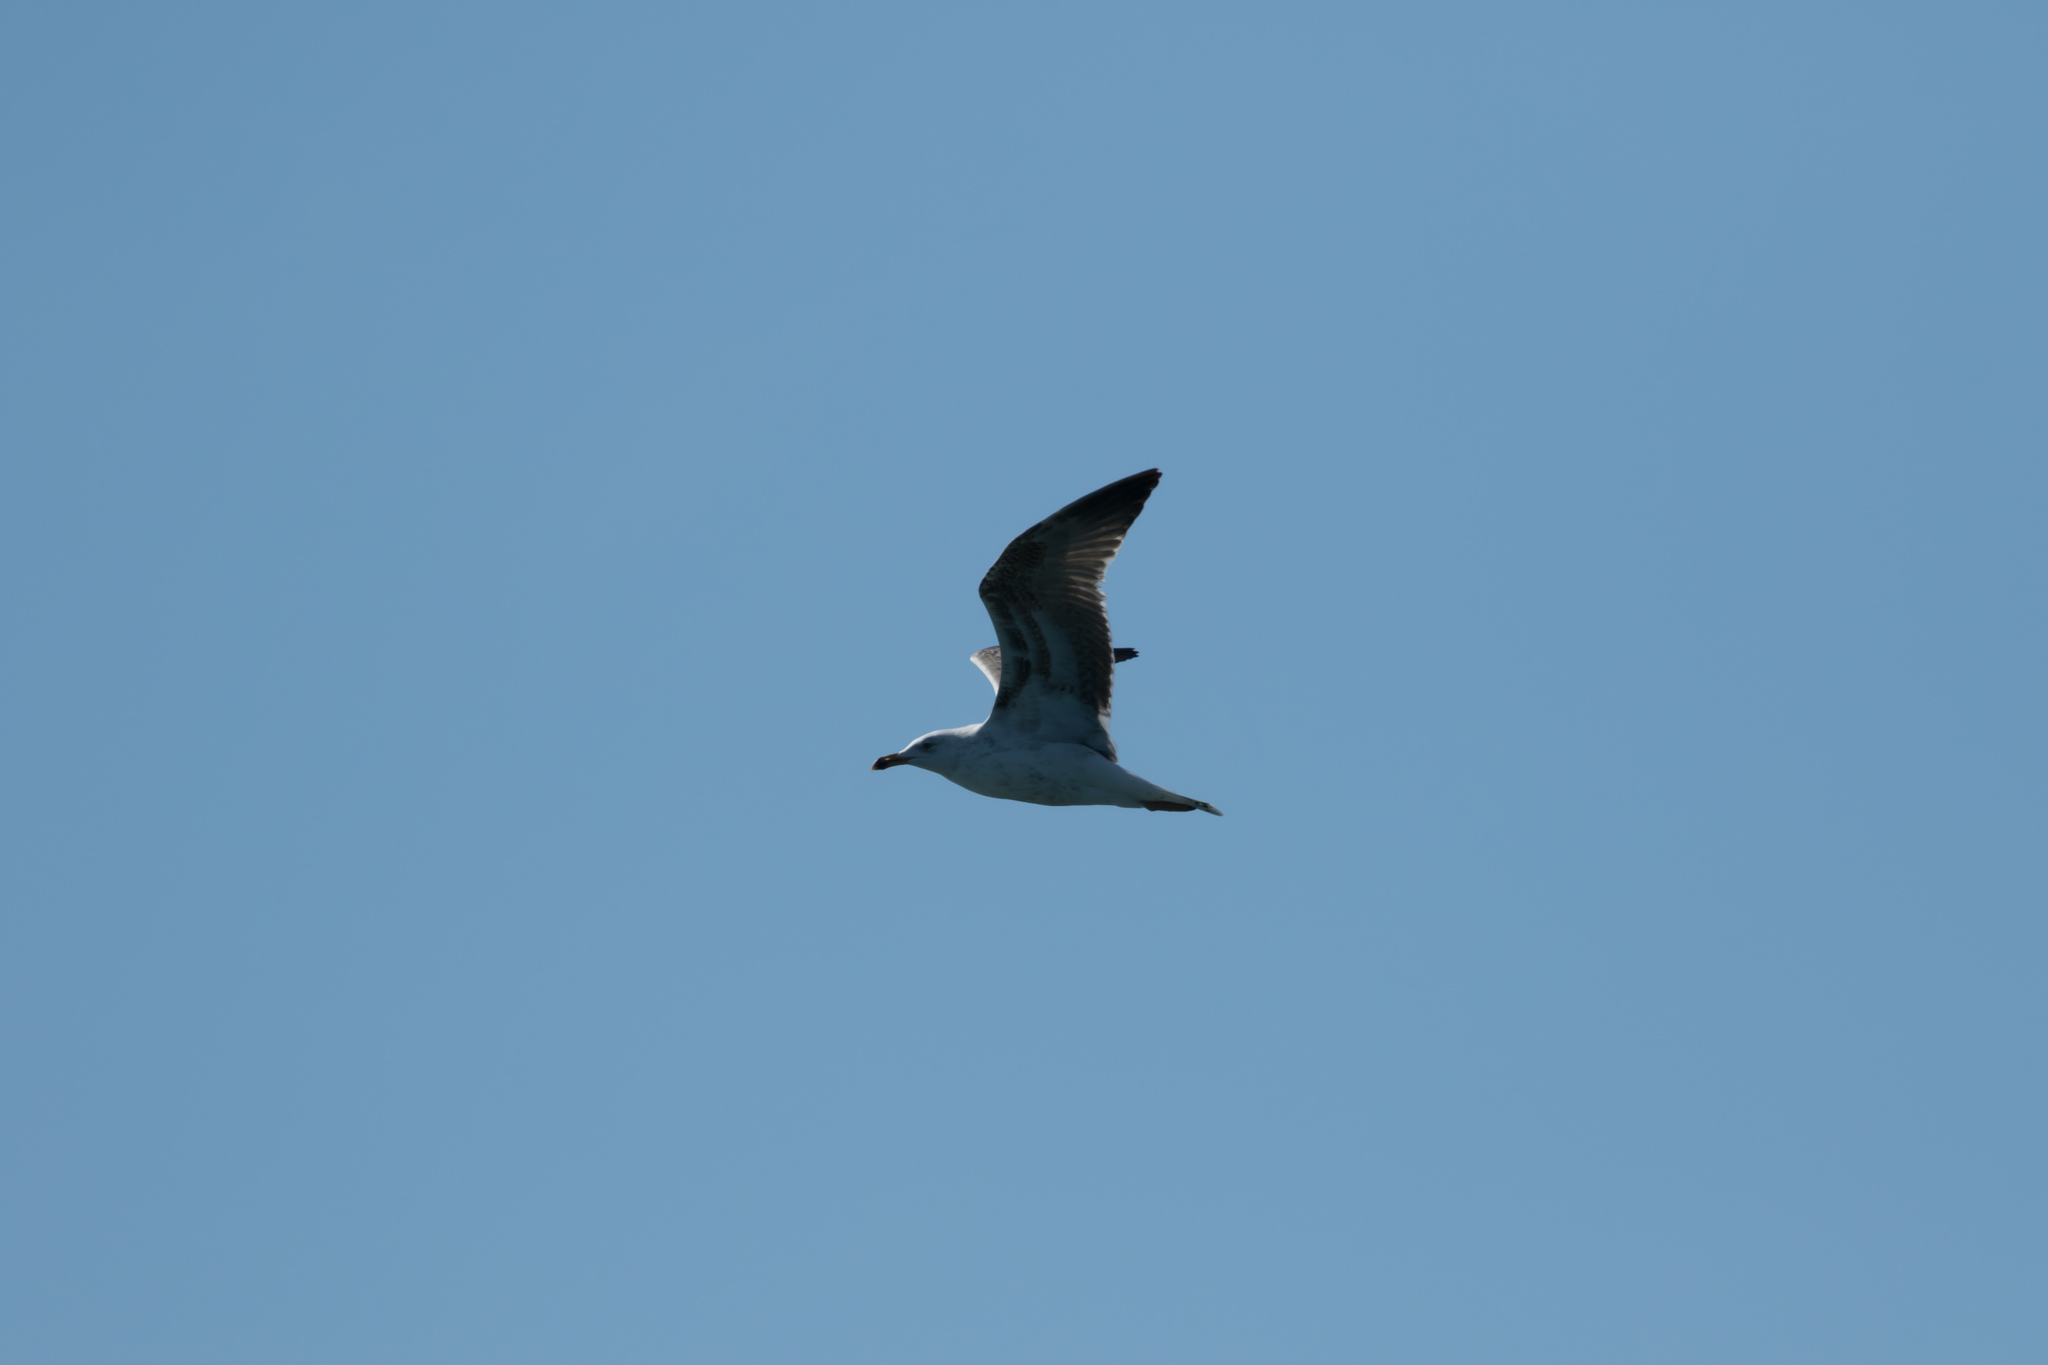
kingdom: Animalia
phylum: Chordata
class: Aves
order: Charadriiformes
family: Laridae
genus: Larus
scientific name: Larus marinus
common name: Great black-backed gull
